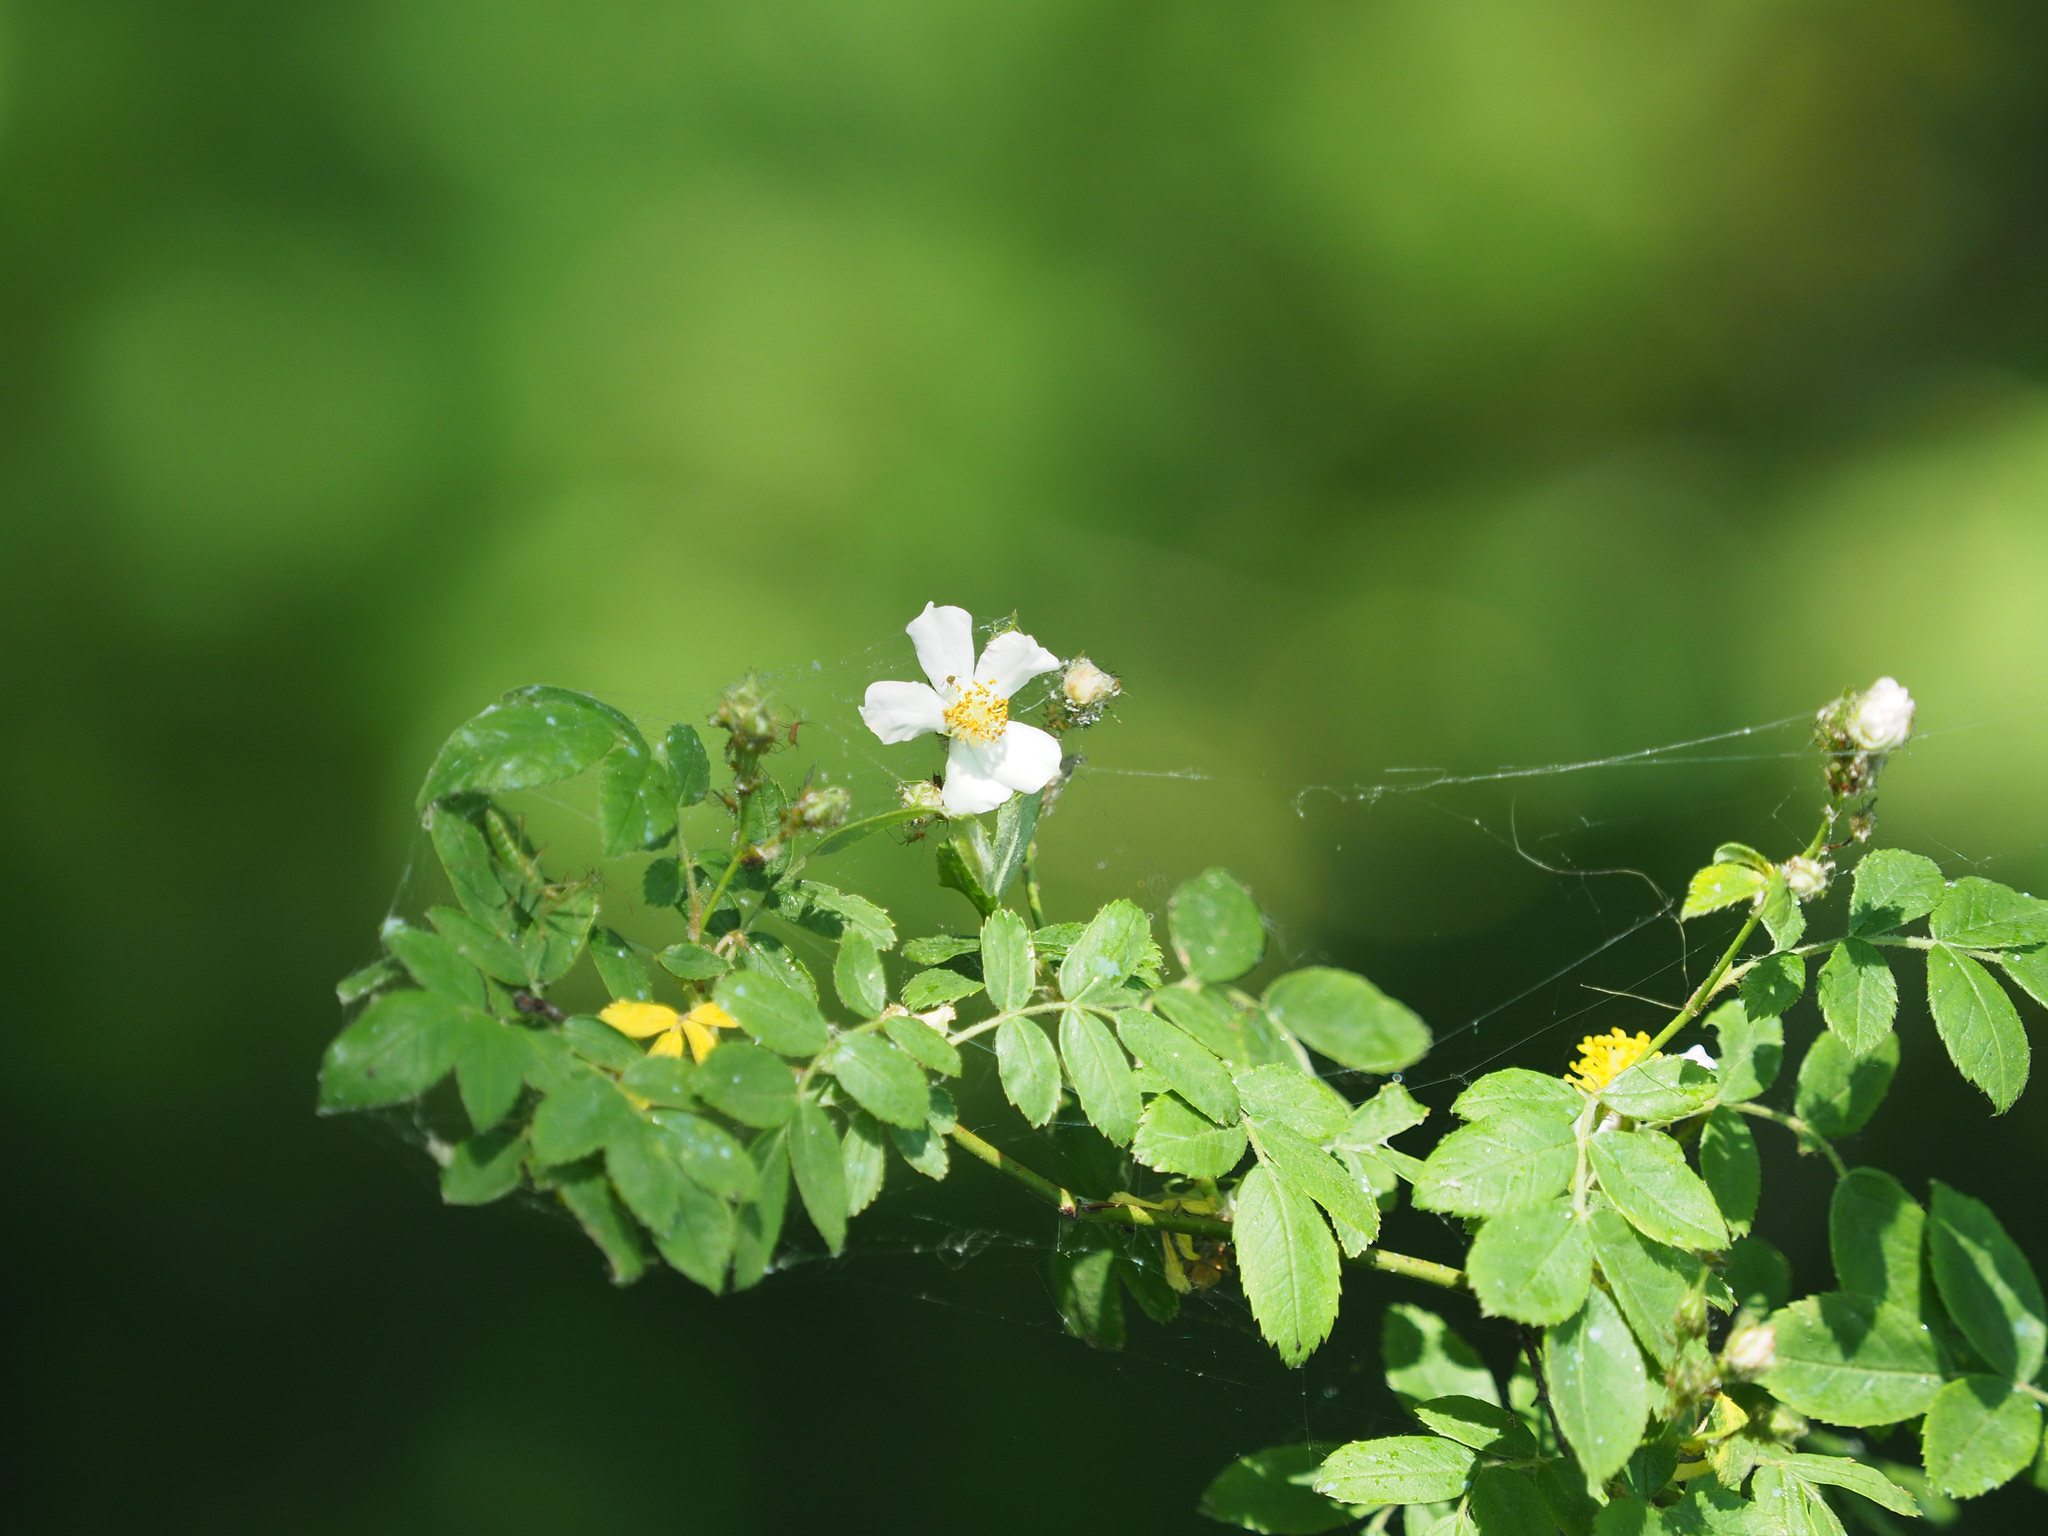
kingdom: Plantae
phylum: Tracheophyta
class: Magnoliopsida
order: Rosales
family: Rosaceae
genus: Rosa
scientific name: Rosa multiflora
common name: Multiflora rose
